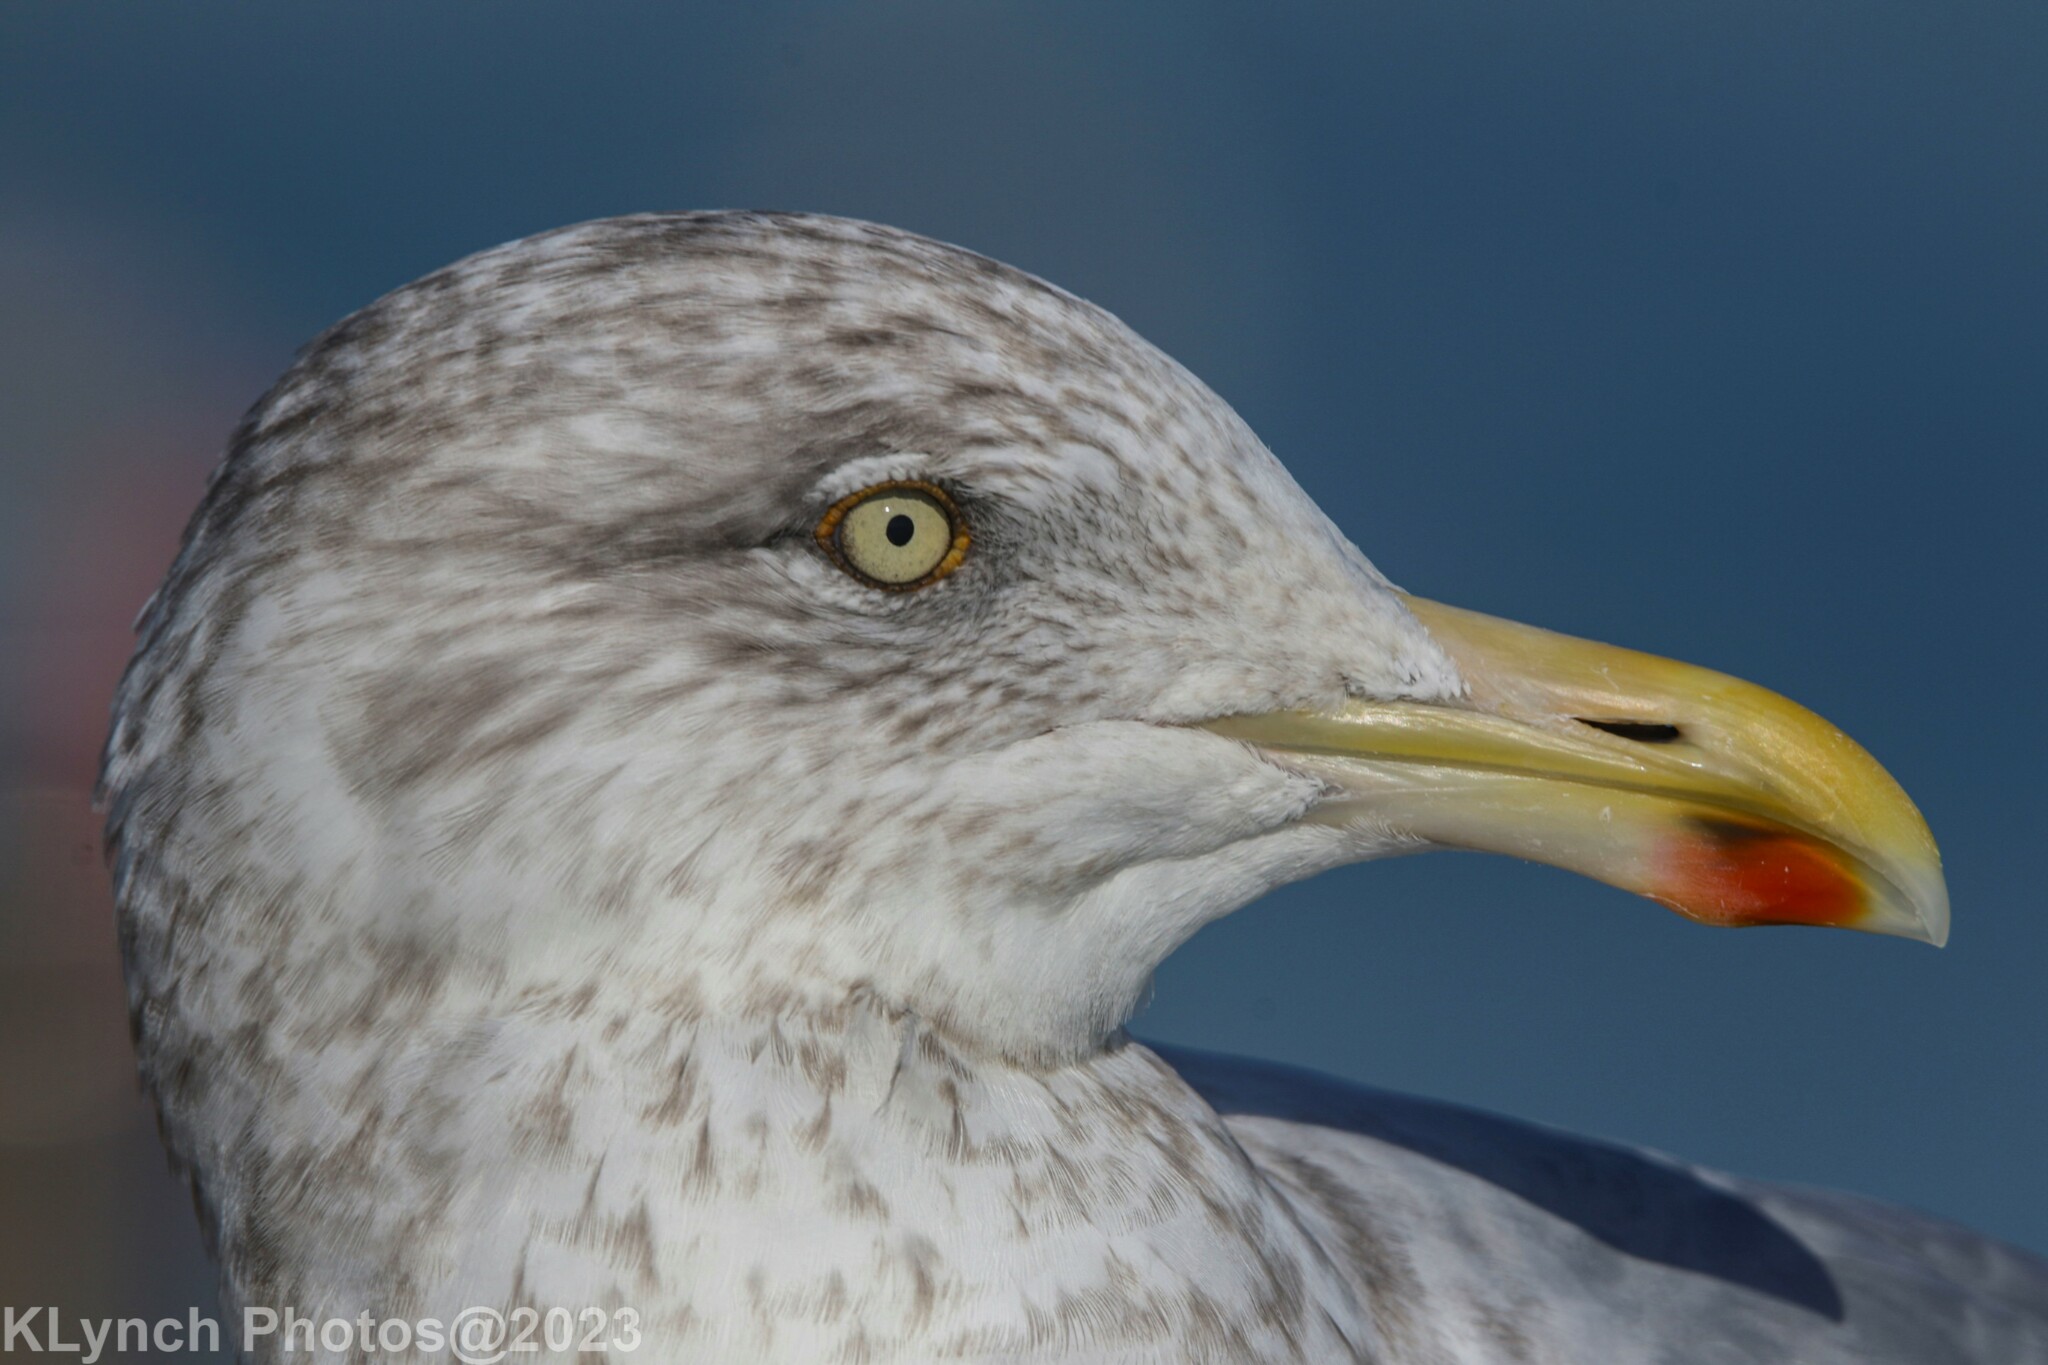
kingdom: Animalia
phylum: Chordata
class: Aves
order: Charadriiformes
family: Laridae
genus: Larus
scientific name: Larus argentatus
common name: Herring gull
